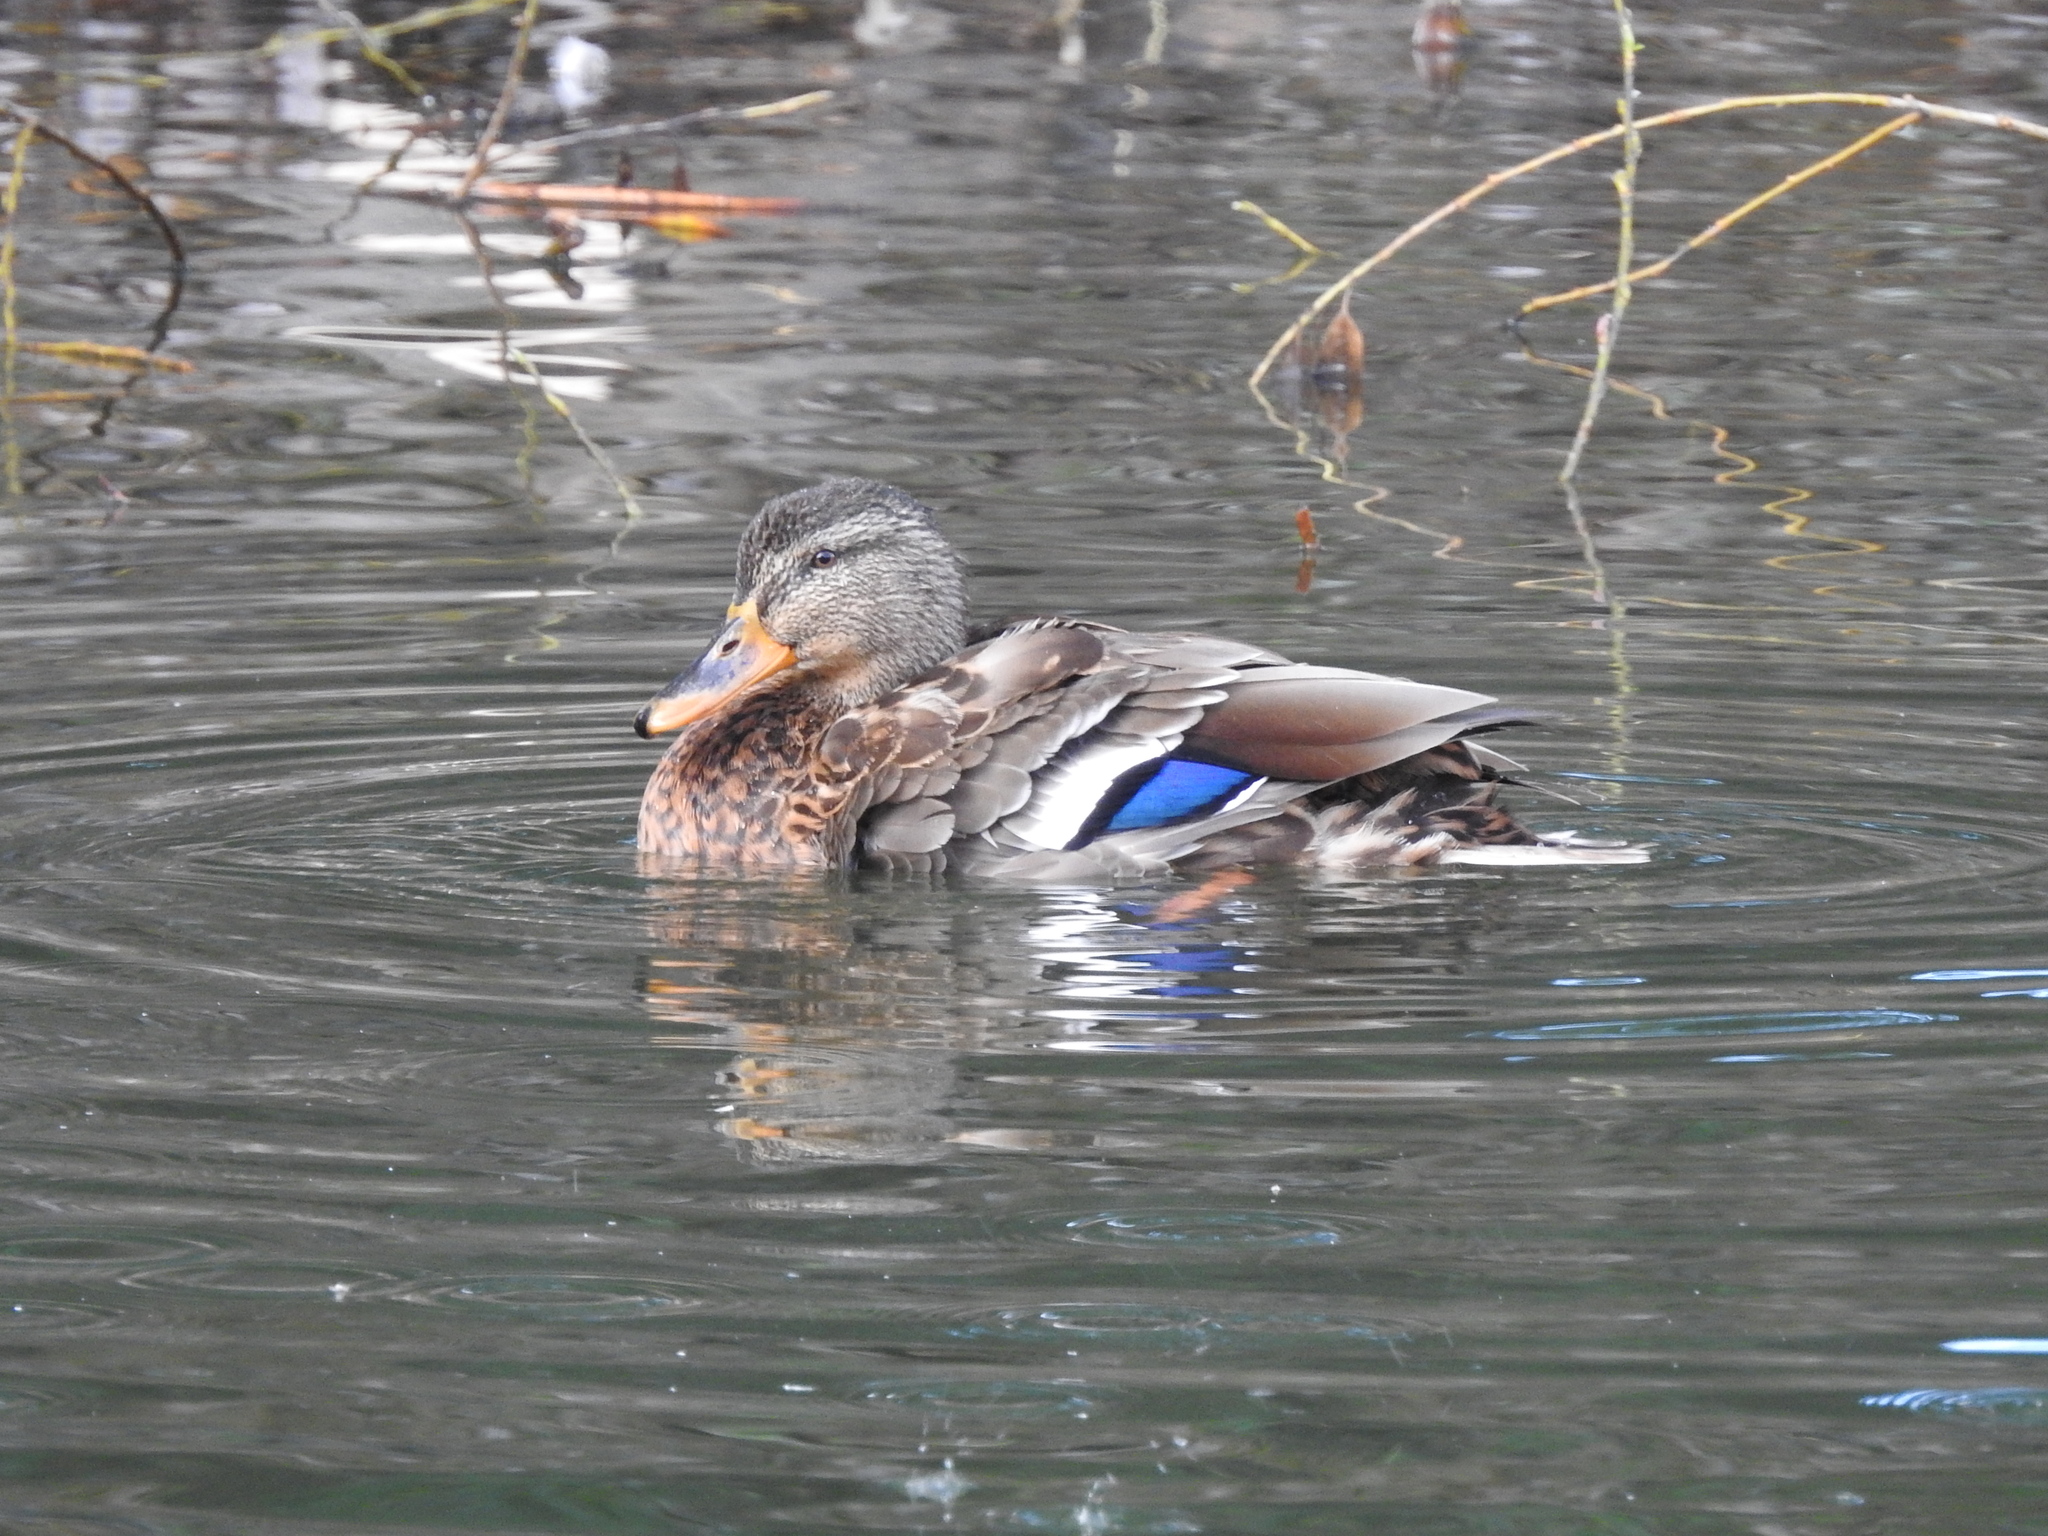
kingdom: Animalia
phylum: Chordata
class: Aves
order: Anseriformes
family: Anatidae
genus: Anas
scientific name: Anas platyrhynchos
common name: Mallard
